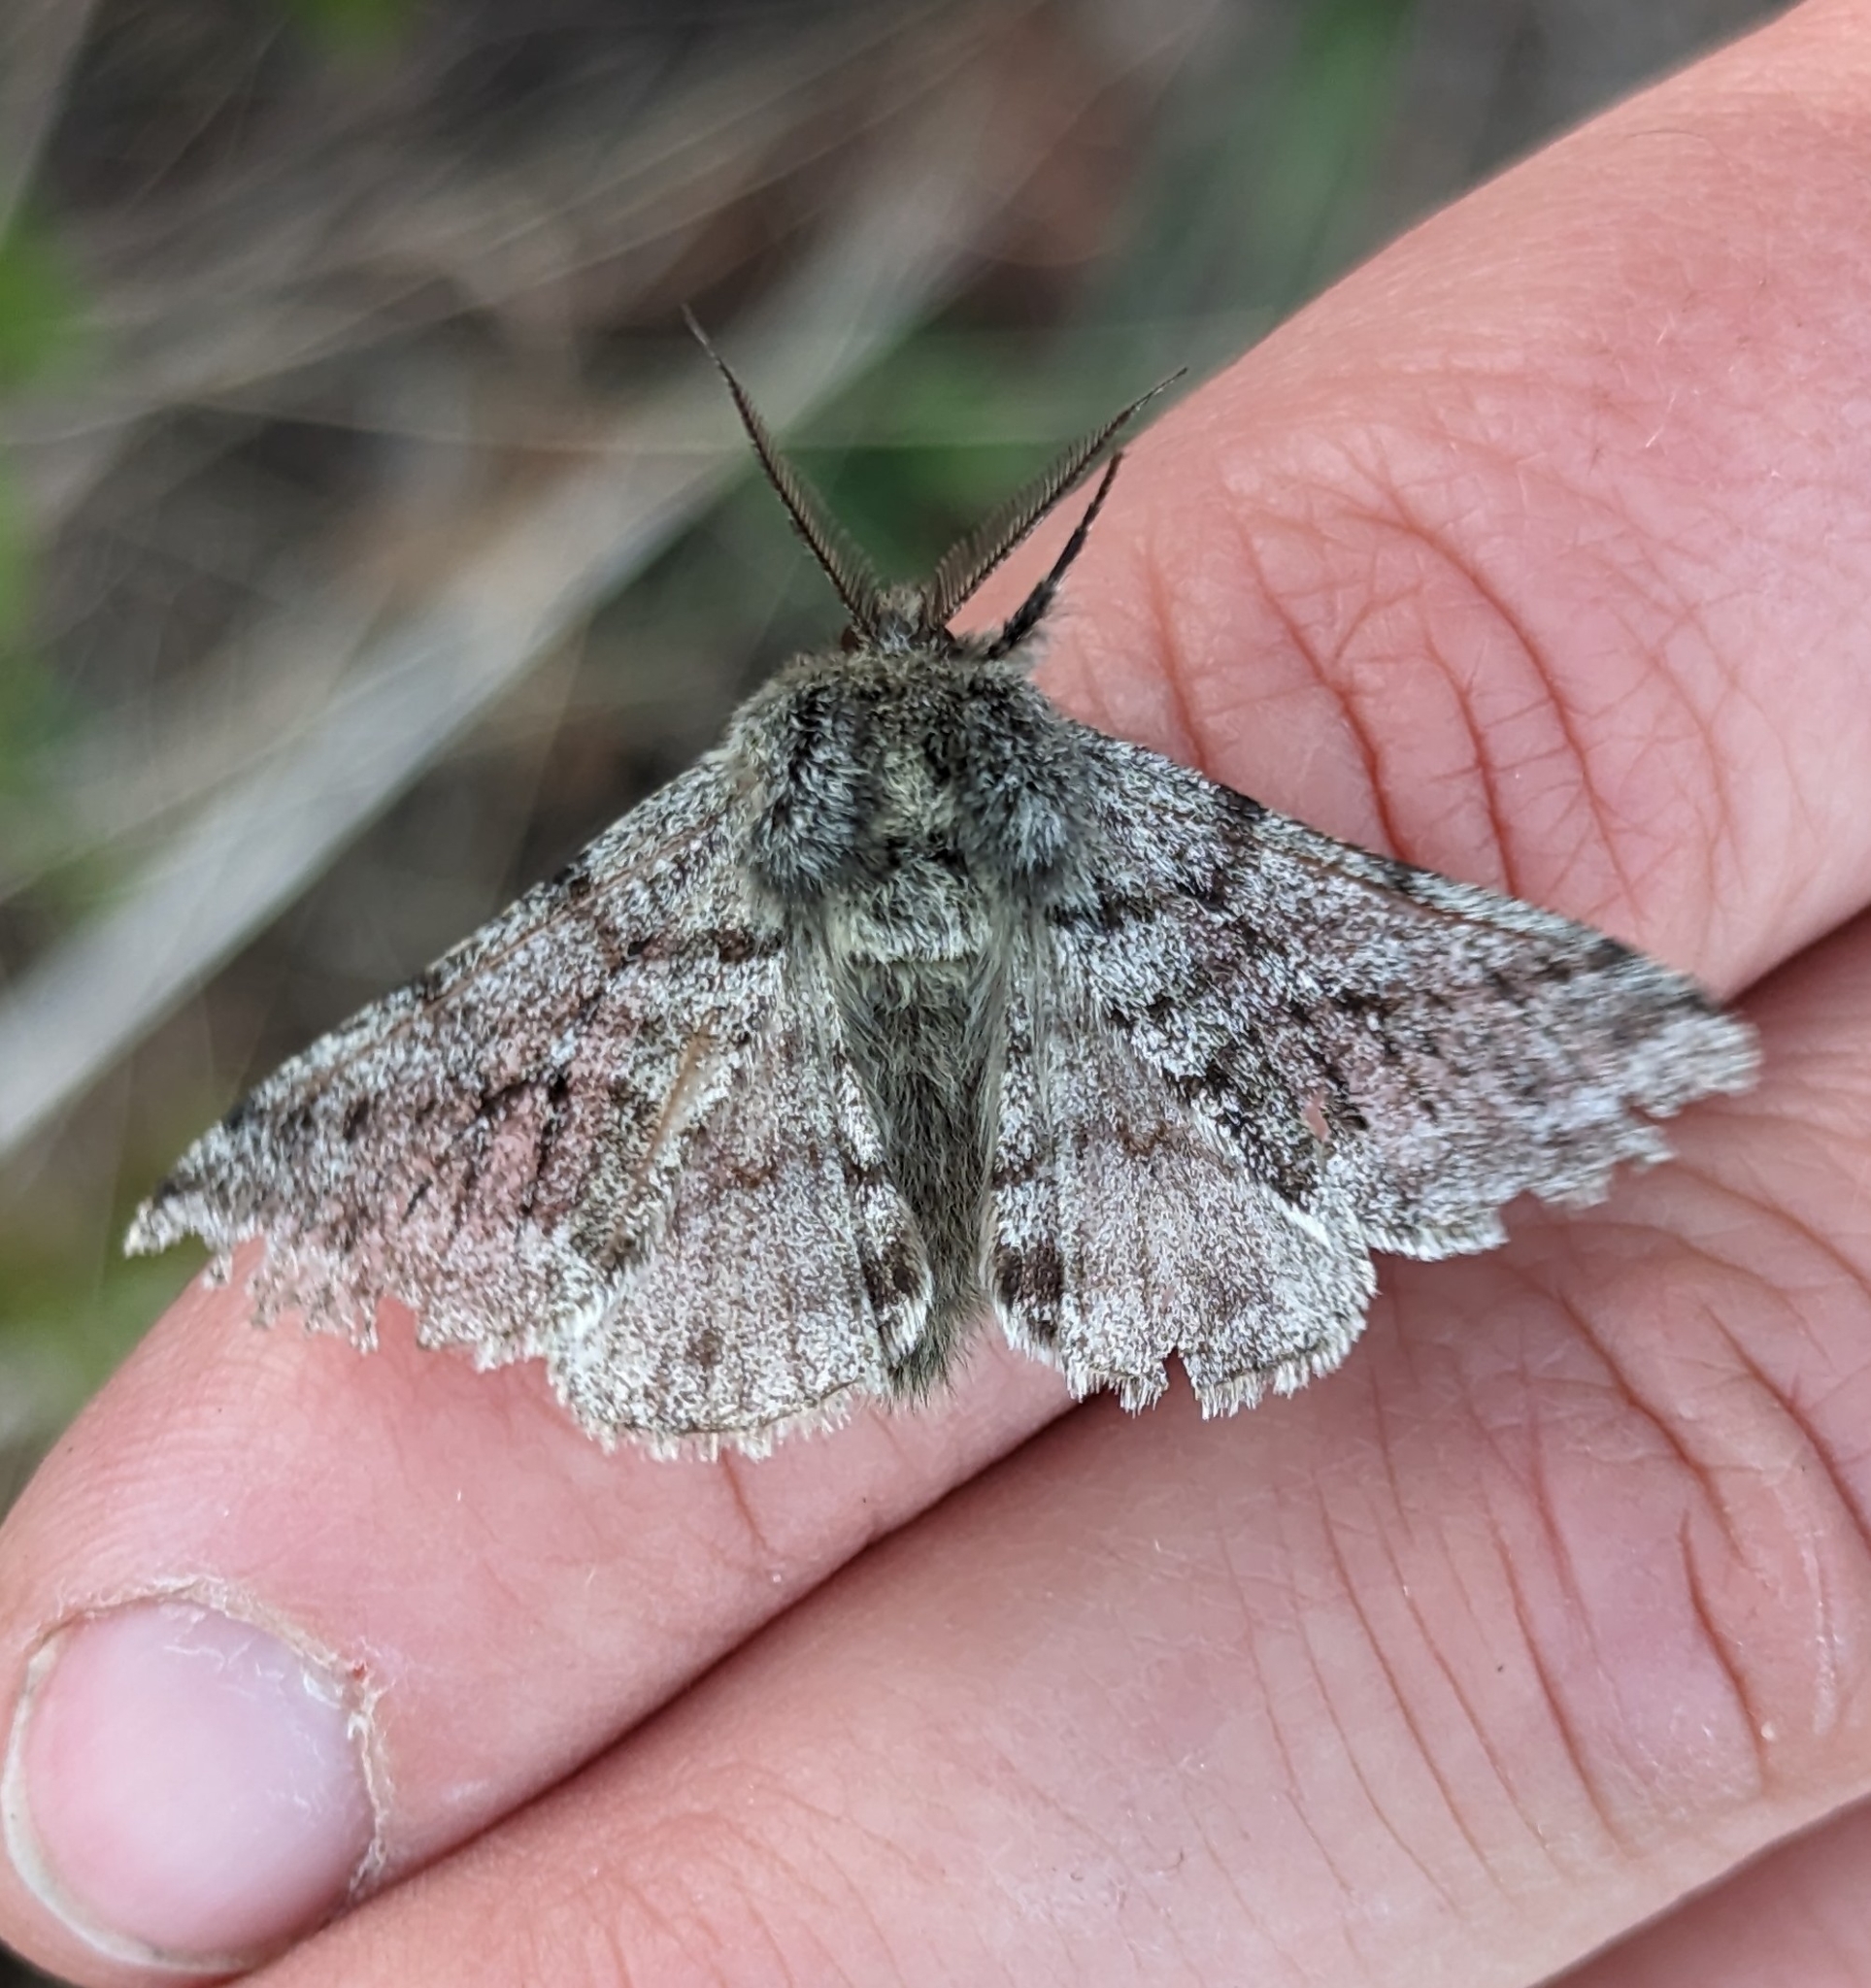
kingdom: Animalia
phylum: Arthropoda
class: Insecta
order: Lepidoptera
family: Geometridae
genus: Lycia
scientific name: Lycia ursaria
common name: Stout spanworm
